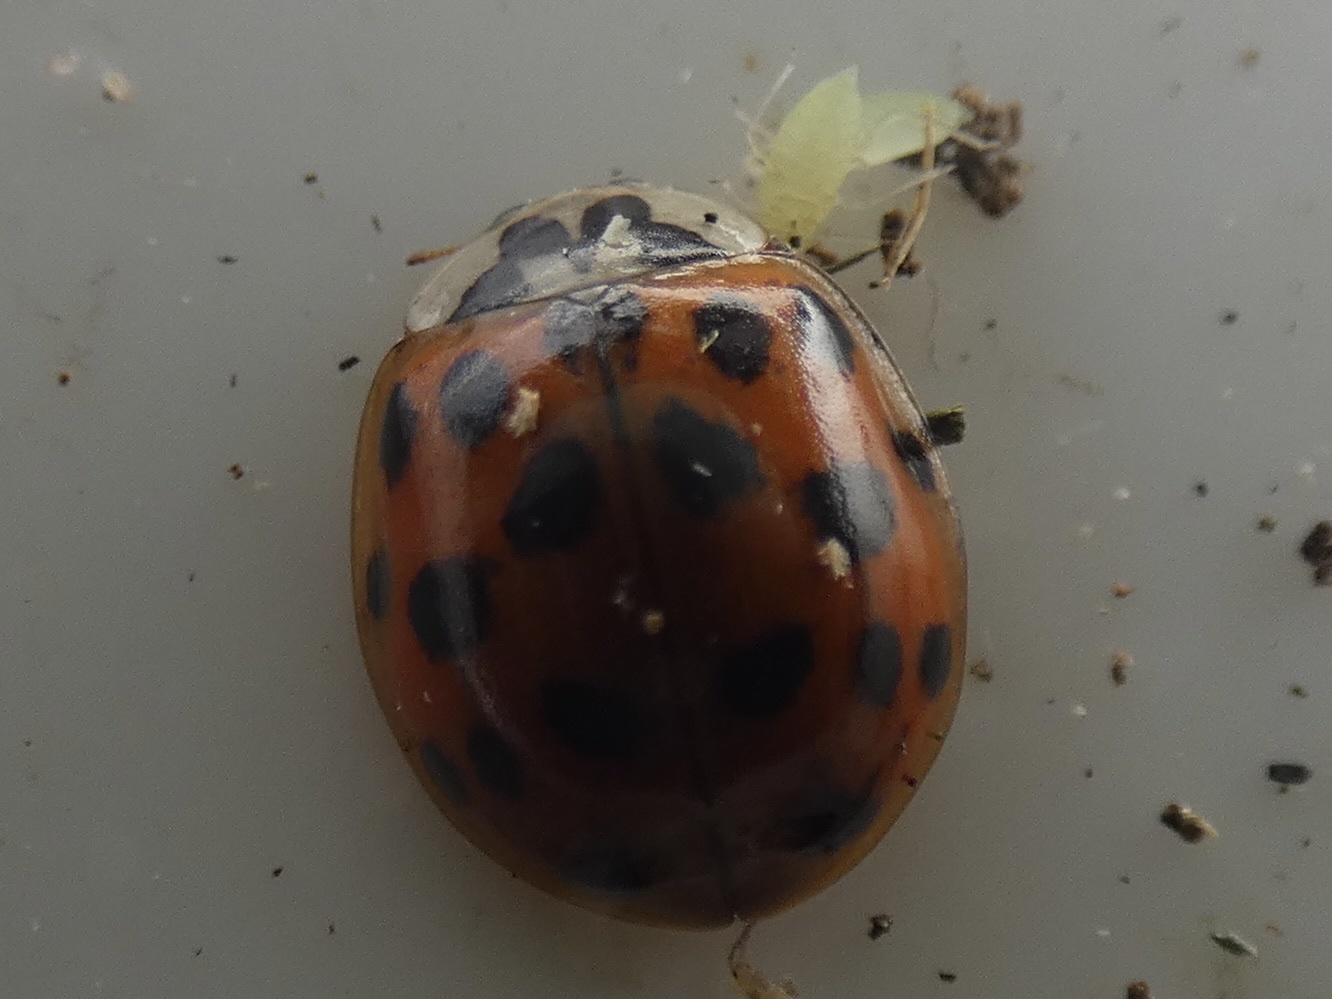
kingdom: Animalia
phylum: Arthropoda
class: Insecta
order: Coleoptera
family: Coccinellidae
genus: Harmonia
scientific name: Harmonia axyridis
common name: Harlequin ladybird
